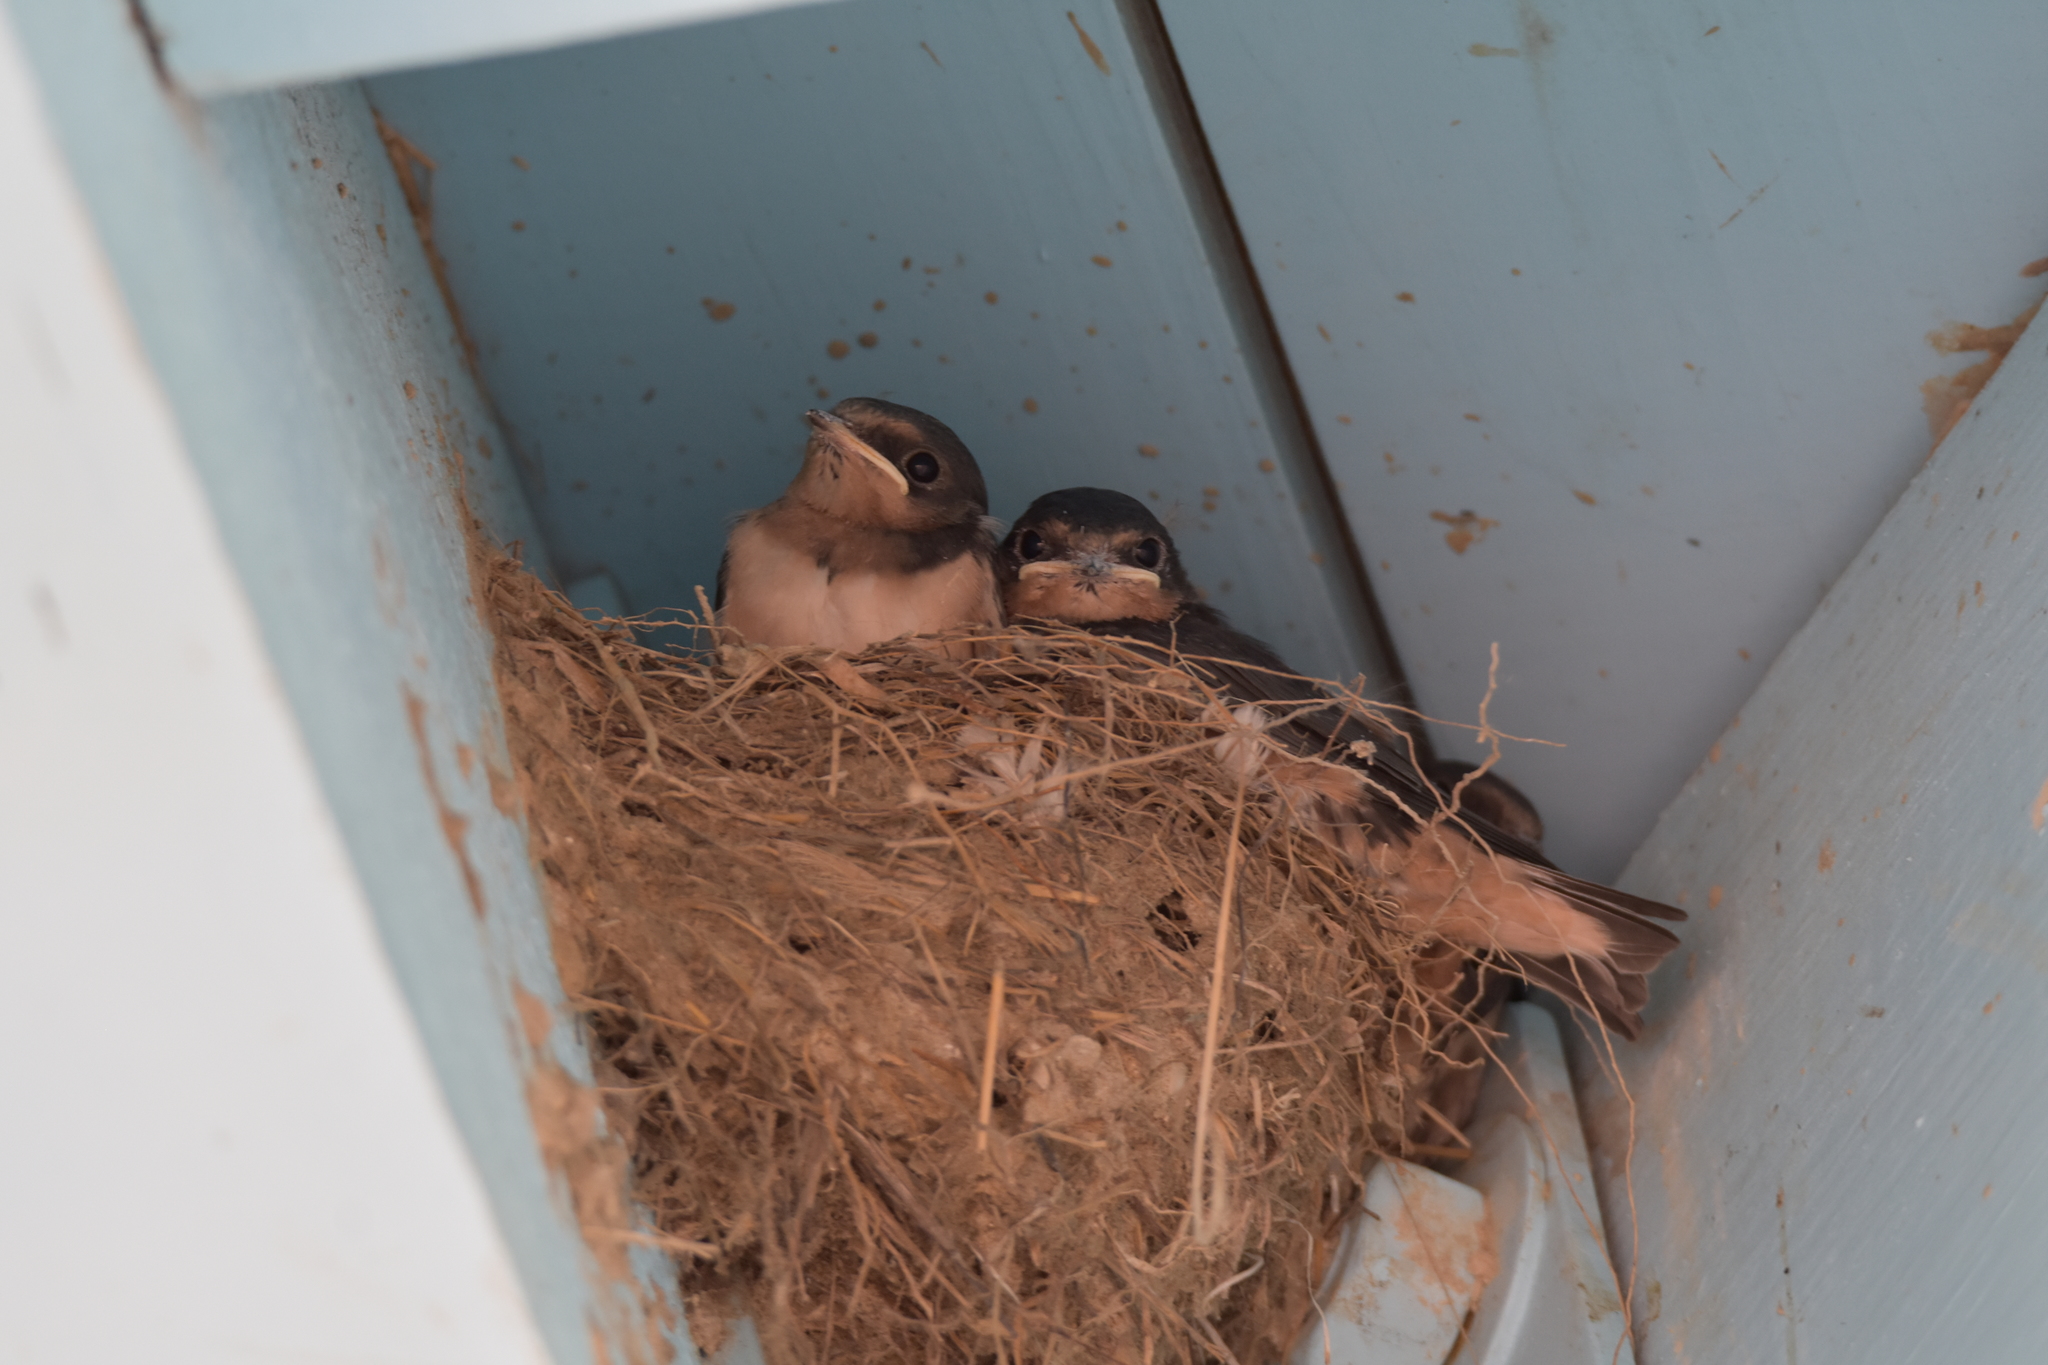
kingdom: Animalia
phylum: Chordata
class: Aves
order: Passeriformes
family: Hirundinidae
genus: Hirundo
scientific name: Hirundo rustica
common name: Barn swallow
